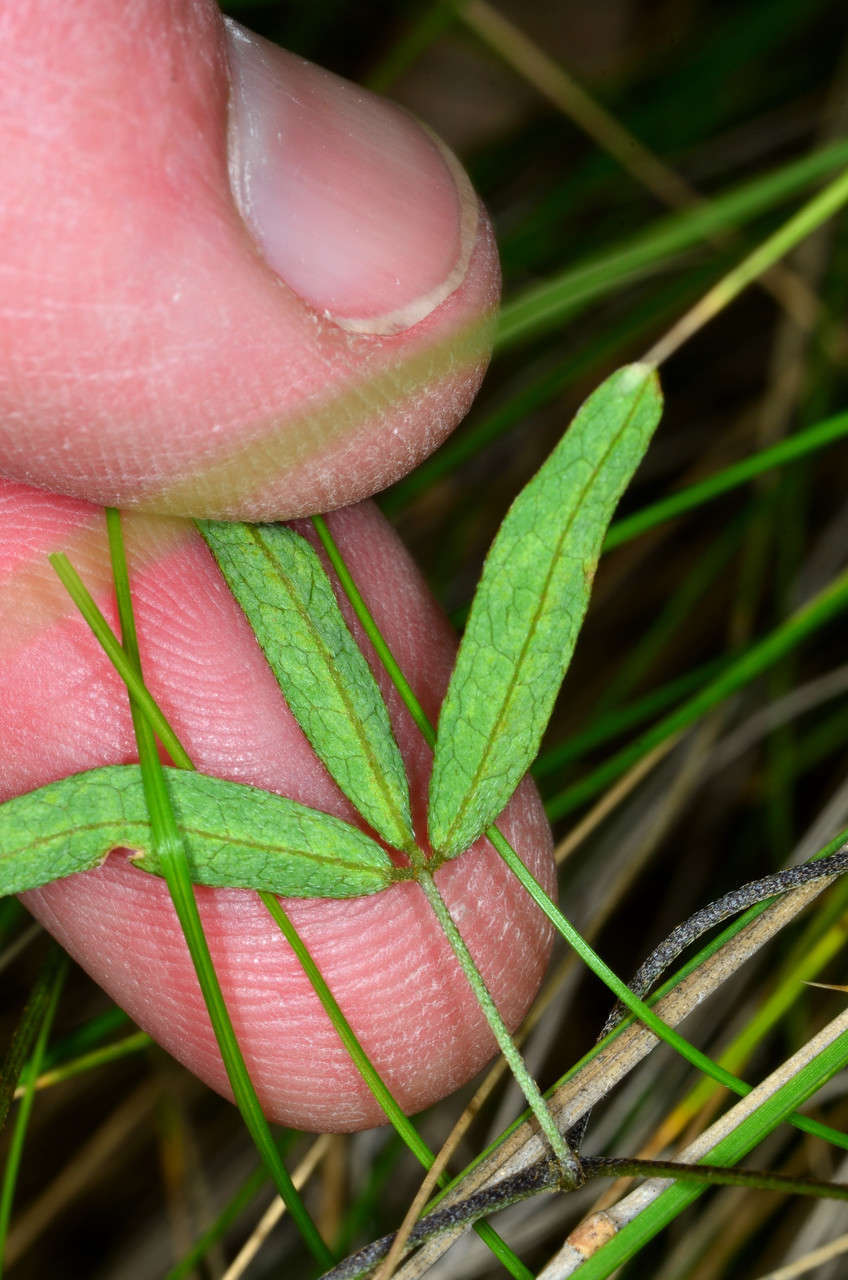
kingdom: Plantae
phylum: Tracheophyta
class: Magnoliopsida
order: Fabales
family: Fabaceae
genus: Glycine
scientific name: Glycine clandestina
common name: Twining glycine
